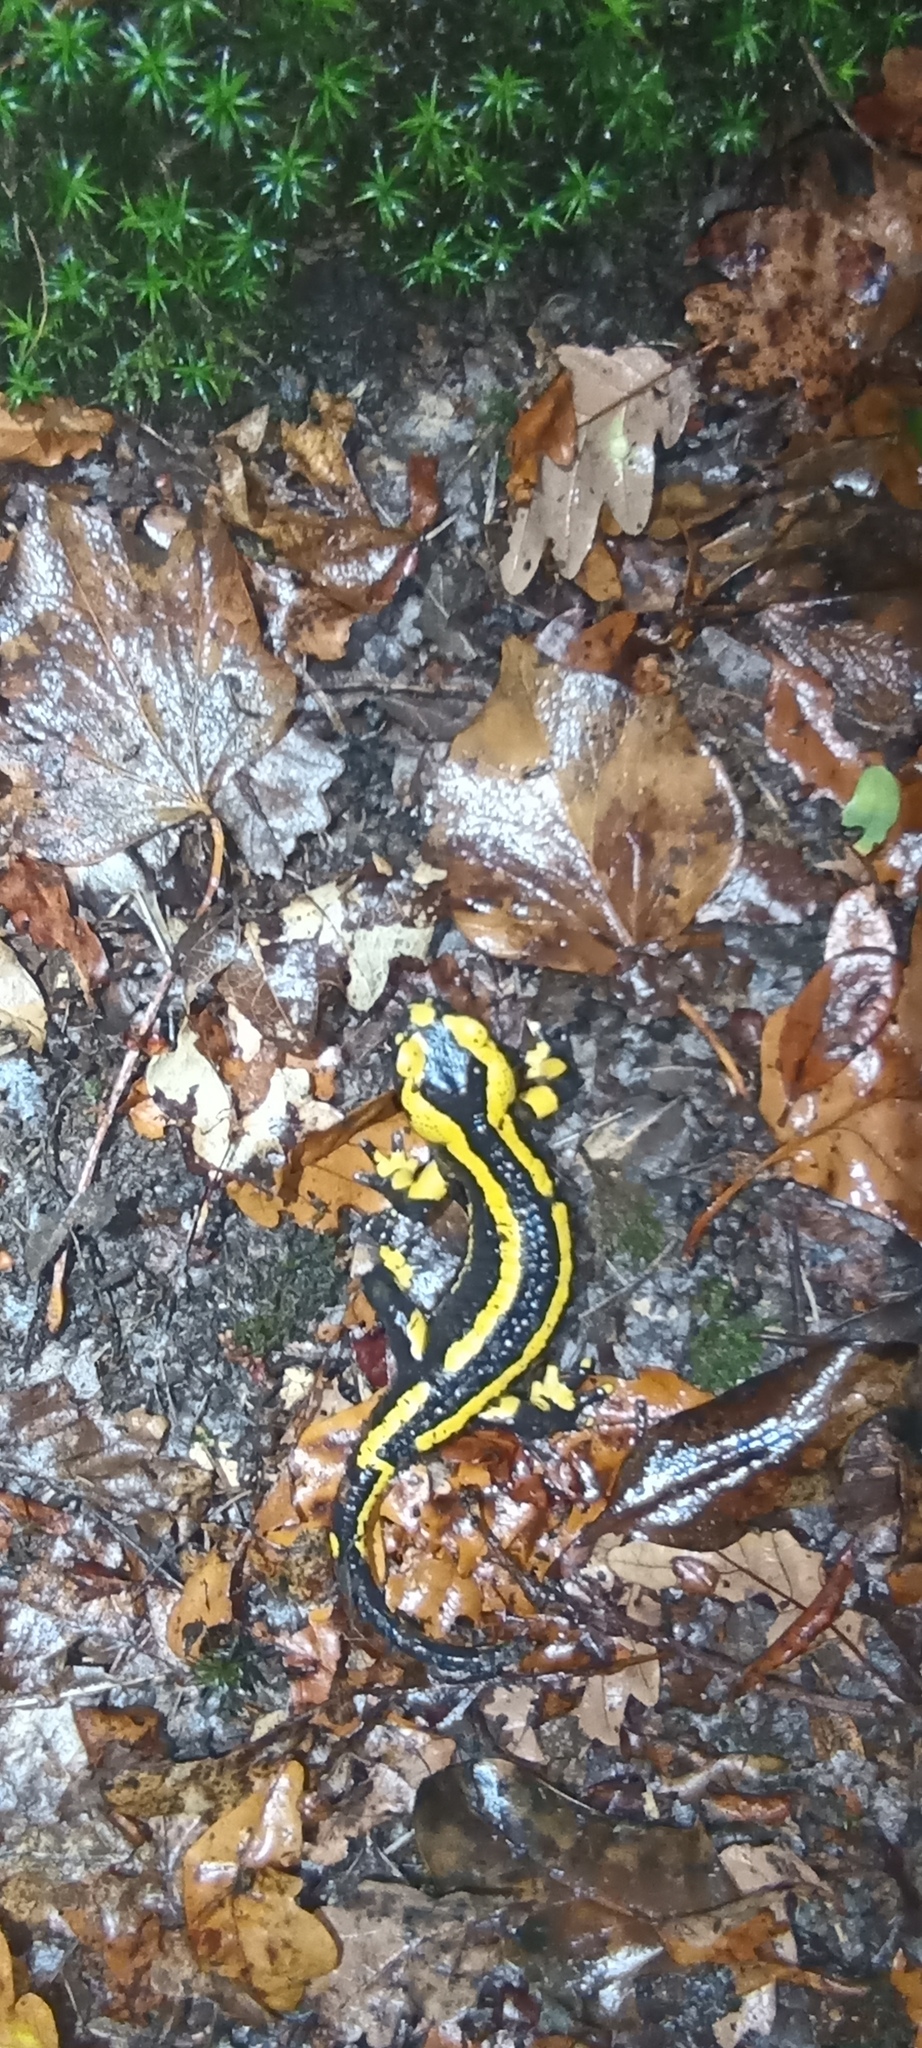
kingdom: Animalia
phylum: Chordata
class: Amphibia
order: Caudata
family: Salamandridae
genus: Salamandra
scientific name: Salamandra salamandra
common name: Fire salamander
